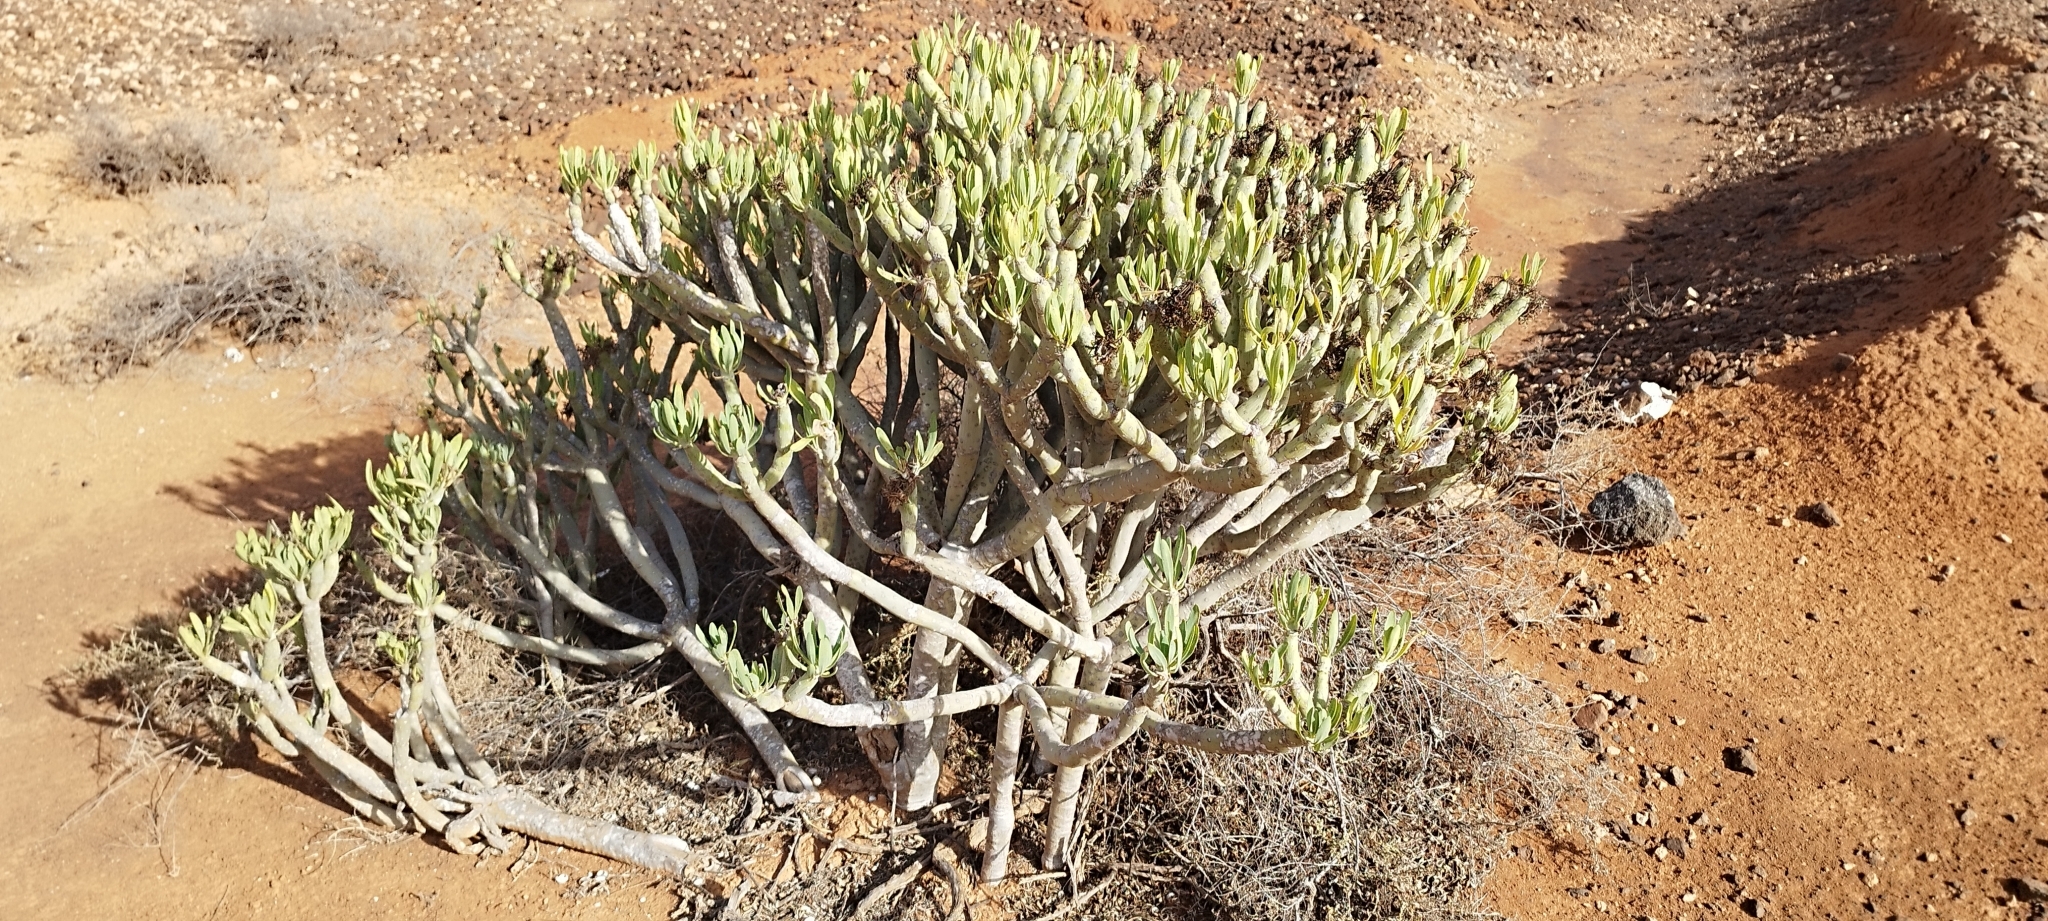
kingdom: Plantae
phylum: Tracheophyta
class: Magnoliopsida
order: Asterales
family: Asteraceae
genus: Kleinia
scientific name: Kleinia neriifolia
